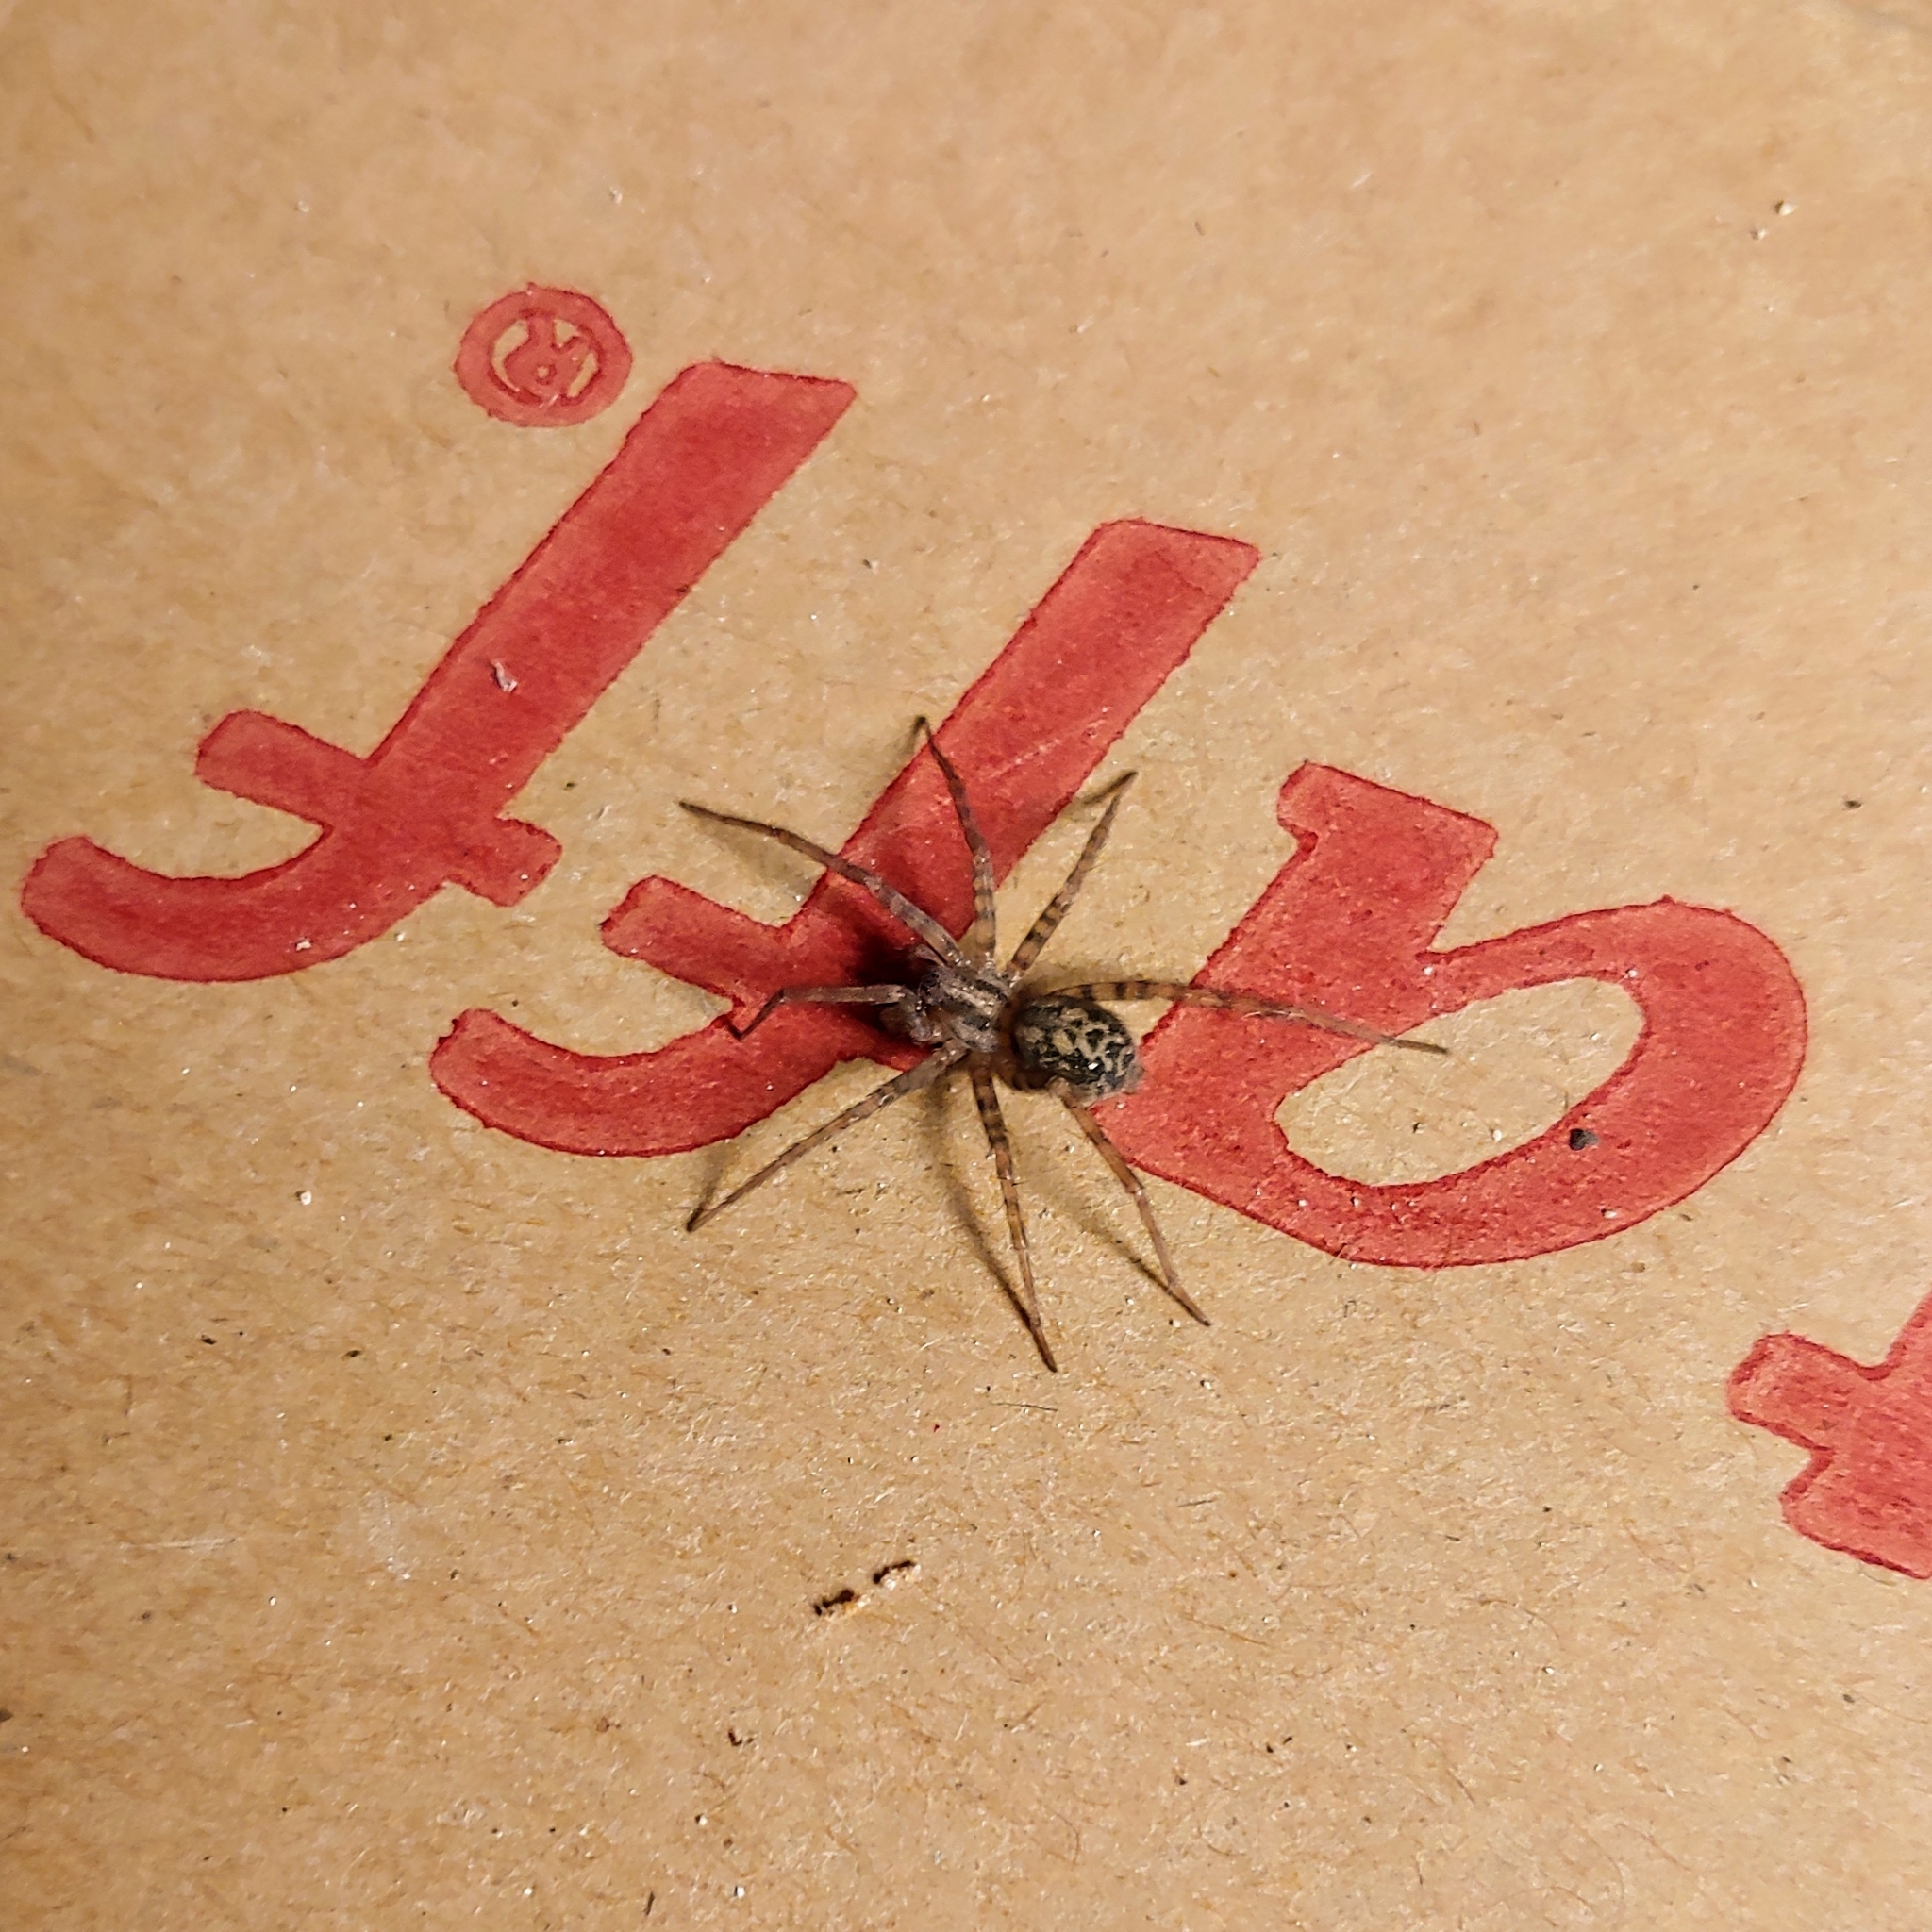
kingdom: Animalia
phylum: Arthropoda
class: Arachnida
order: Araneae
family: Agelenidae
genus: Tegenaria
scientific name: Tegenaria domestica
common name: Barn funnel weaver
